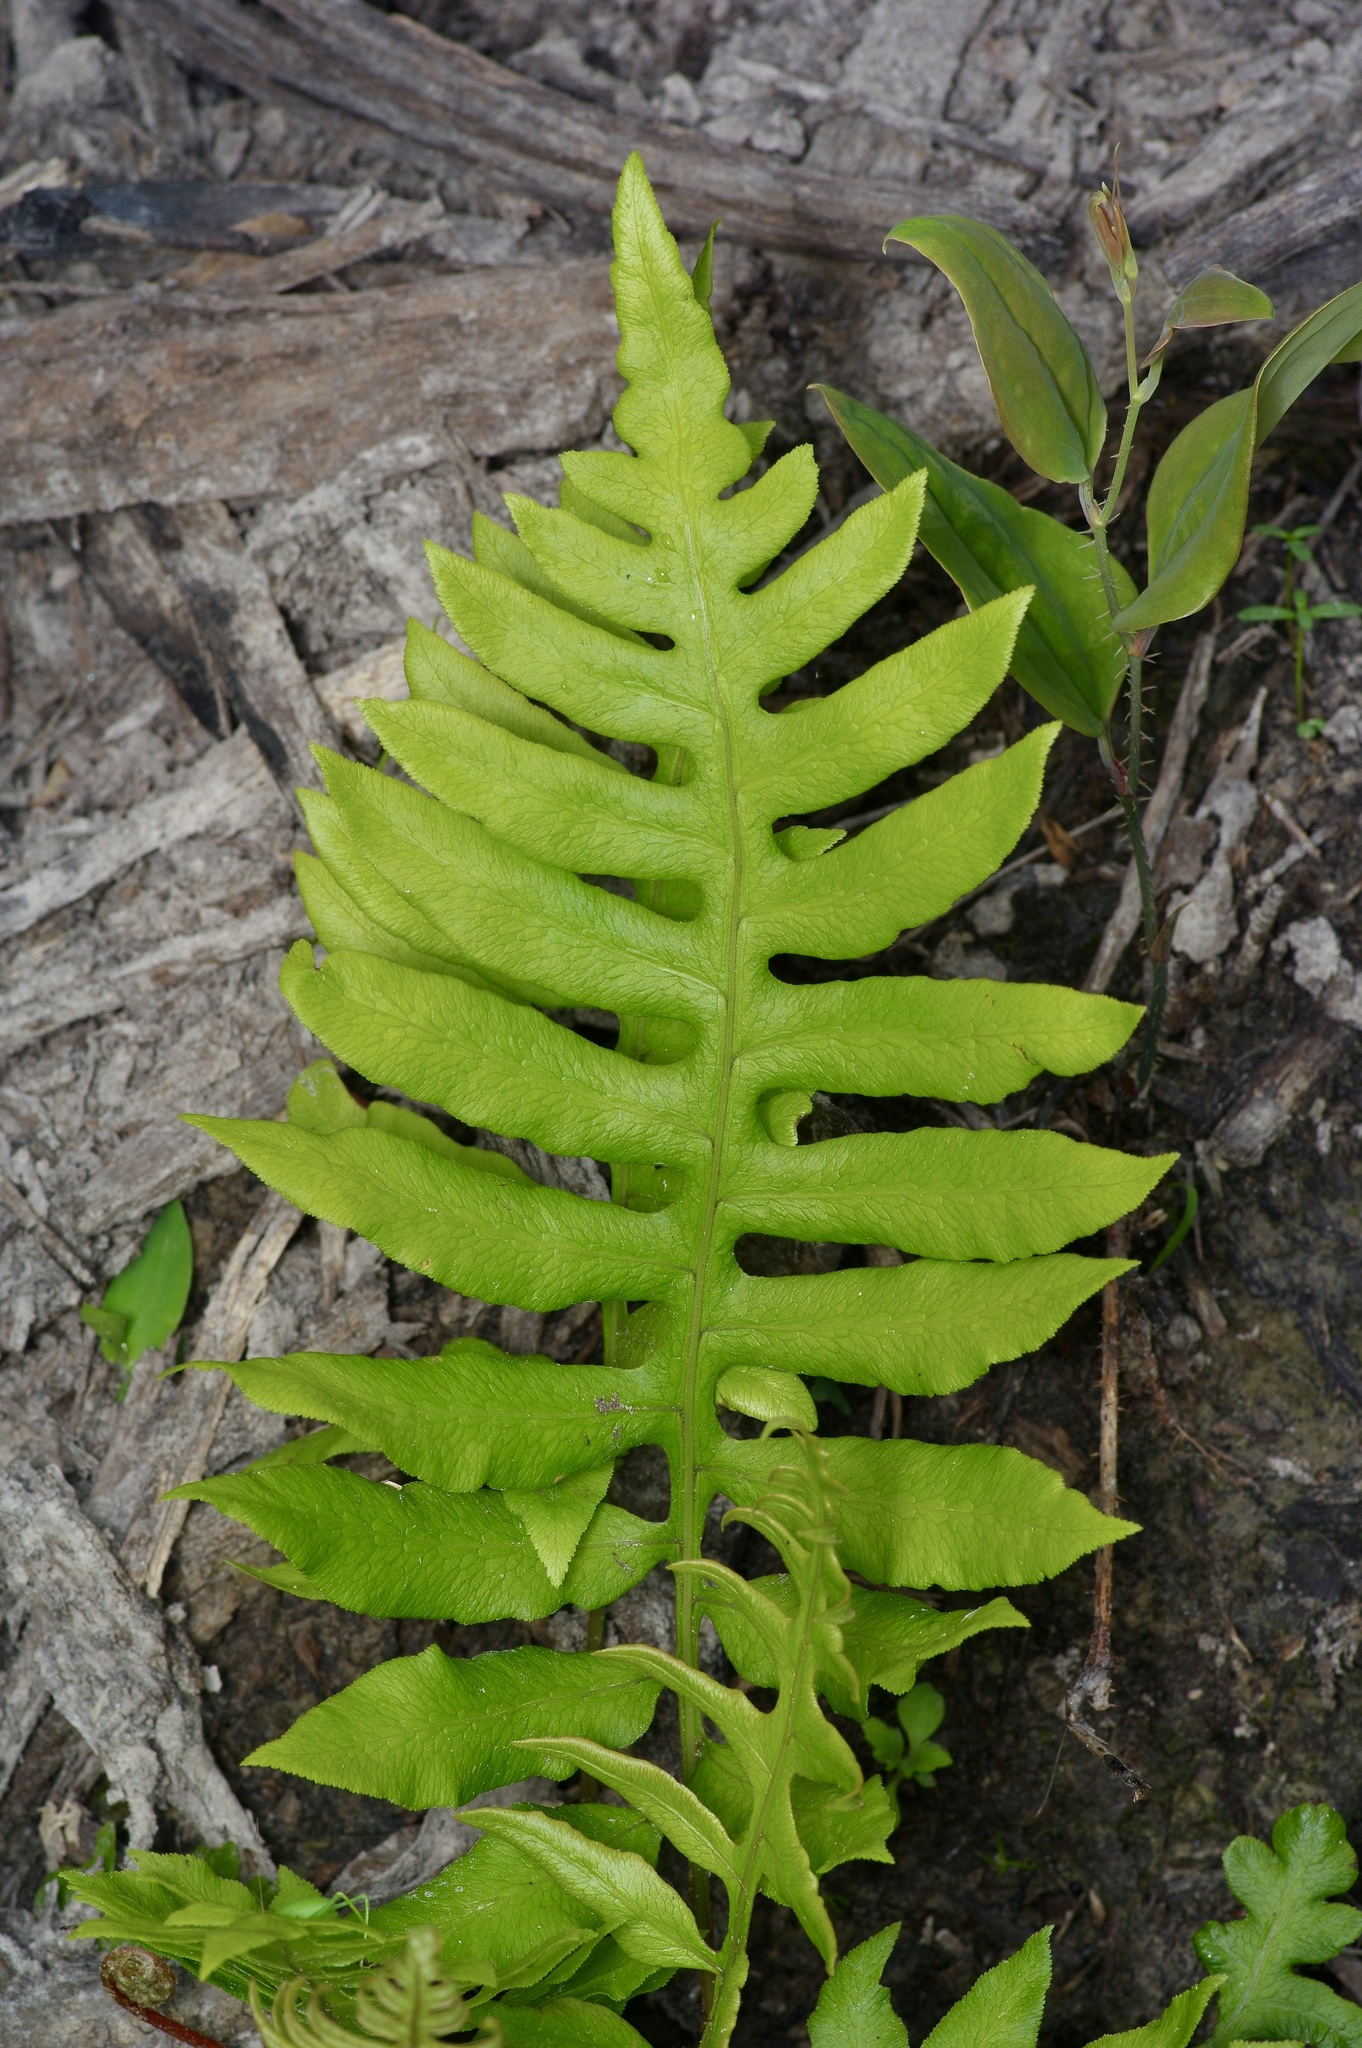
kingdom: Plantae
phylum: Tracheophyta
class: Polypodiopsida
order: Polypodiales
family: Blechnaceae
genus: Lorinseria
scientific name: Lorinseria areolata
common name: Dwarf chain fern
